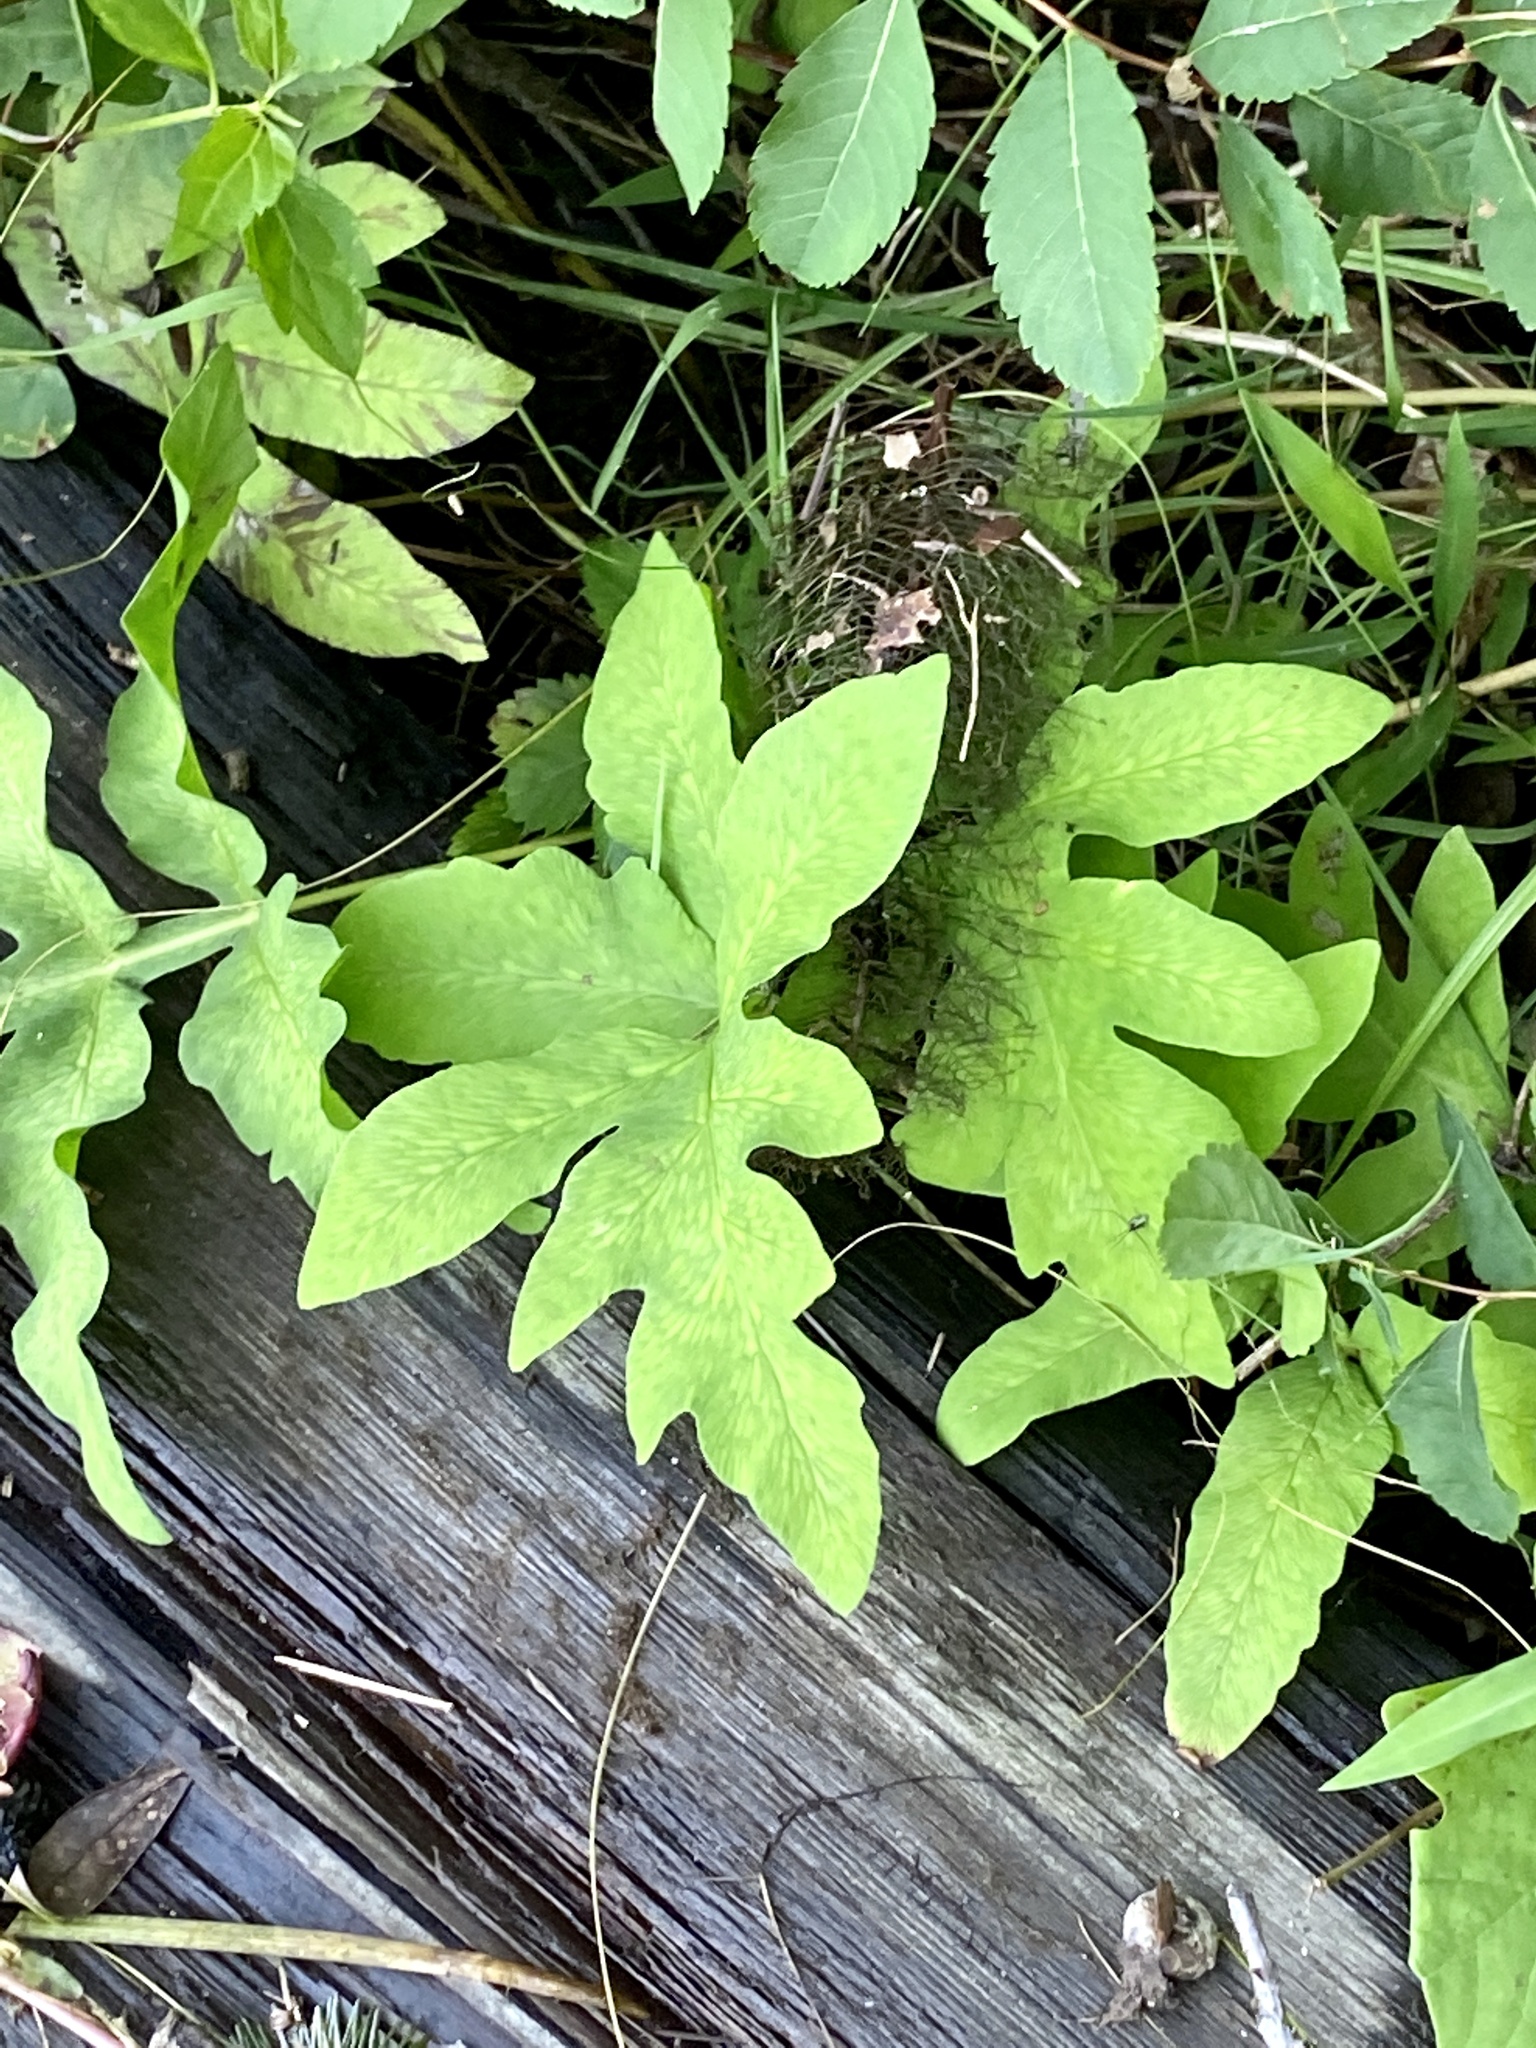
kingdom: Plantae
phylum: Tracheophyta
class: Polypodiopsida
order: Polypodiales
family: Onocleaceae
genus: Onoclea
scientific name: Onoclea sensibilis
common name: Sensitive fern
